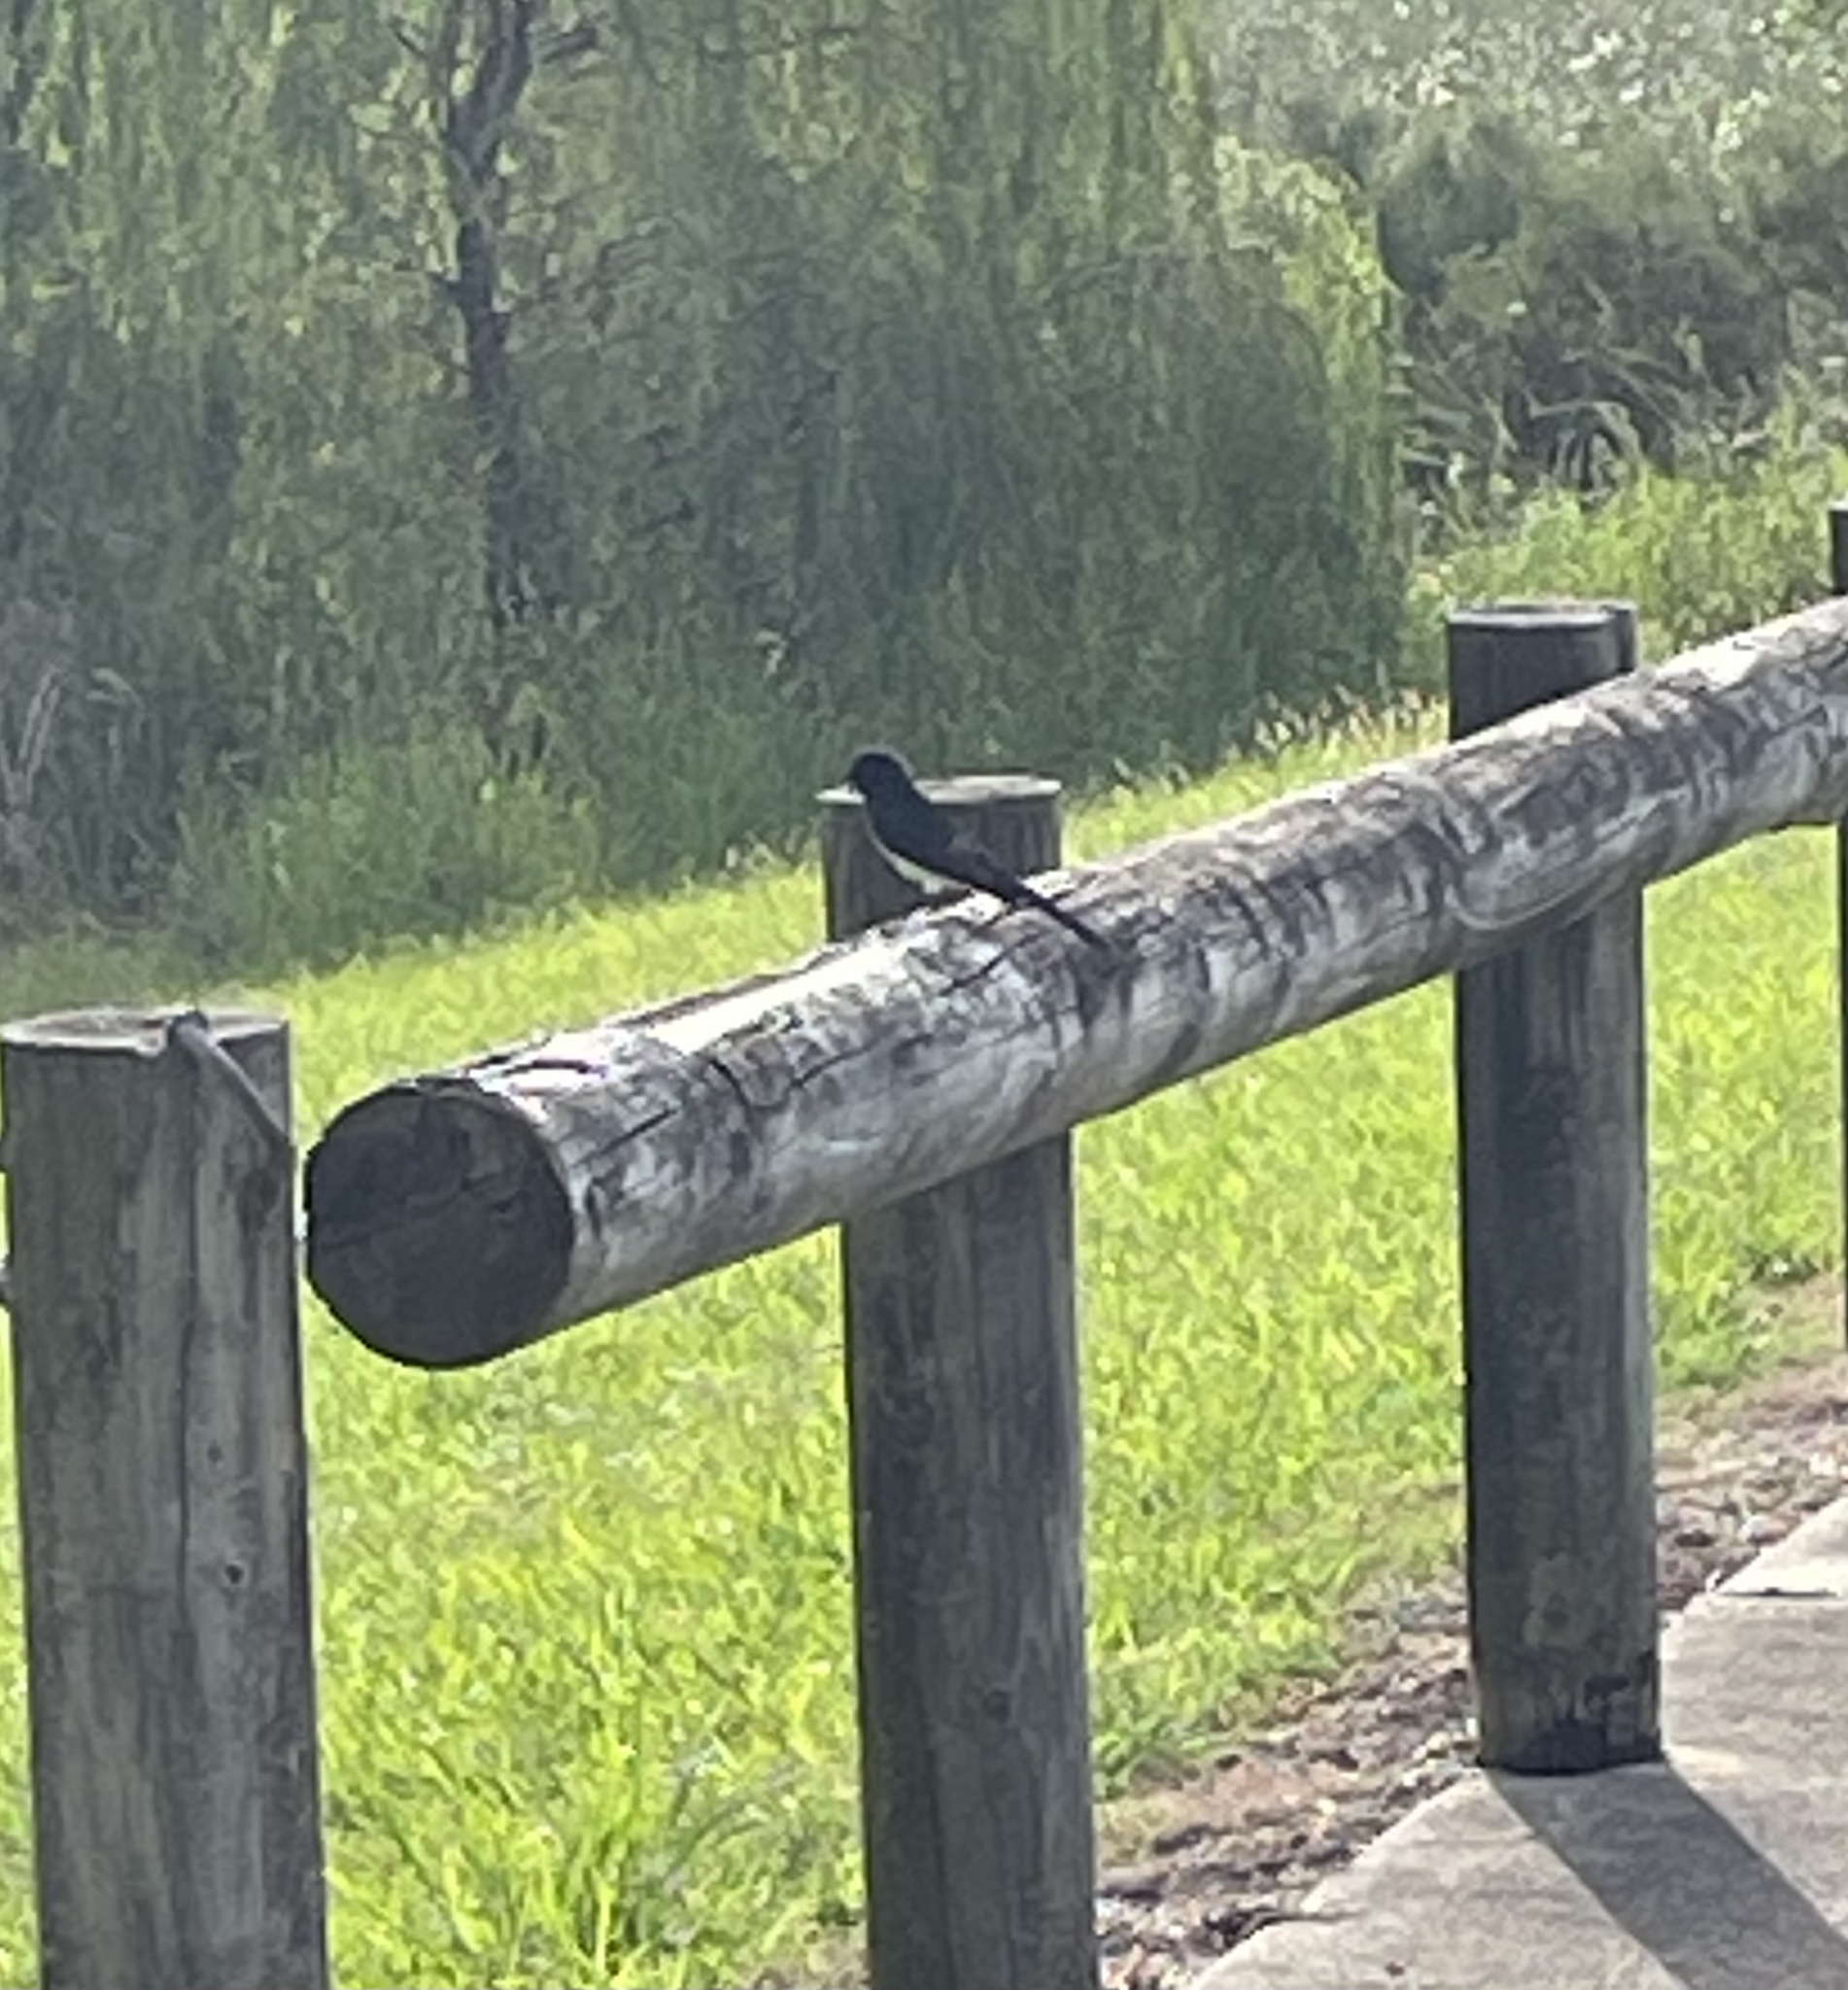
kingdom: Animalia
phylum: Chordata
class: Aves
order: Passeriformes
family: Rhipiduridae
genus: Rhipidura
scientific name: Rhipidura leucophrys
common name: Willie wagtail
